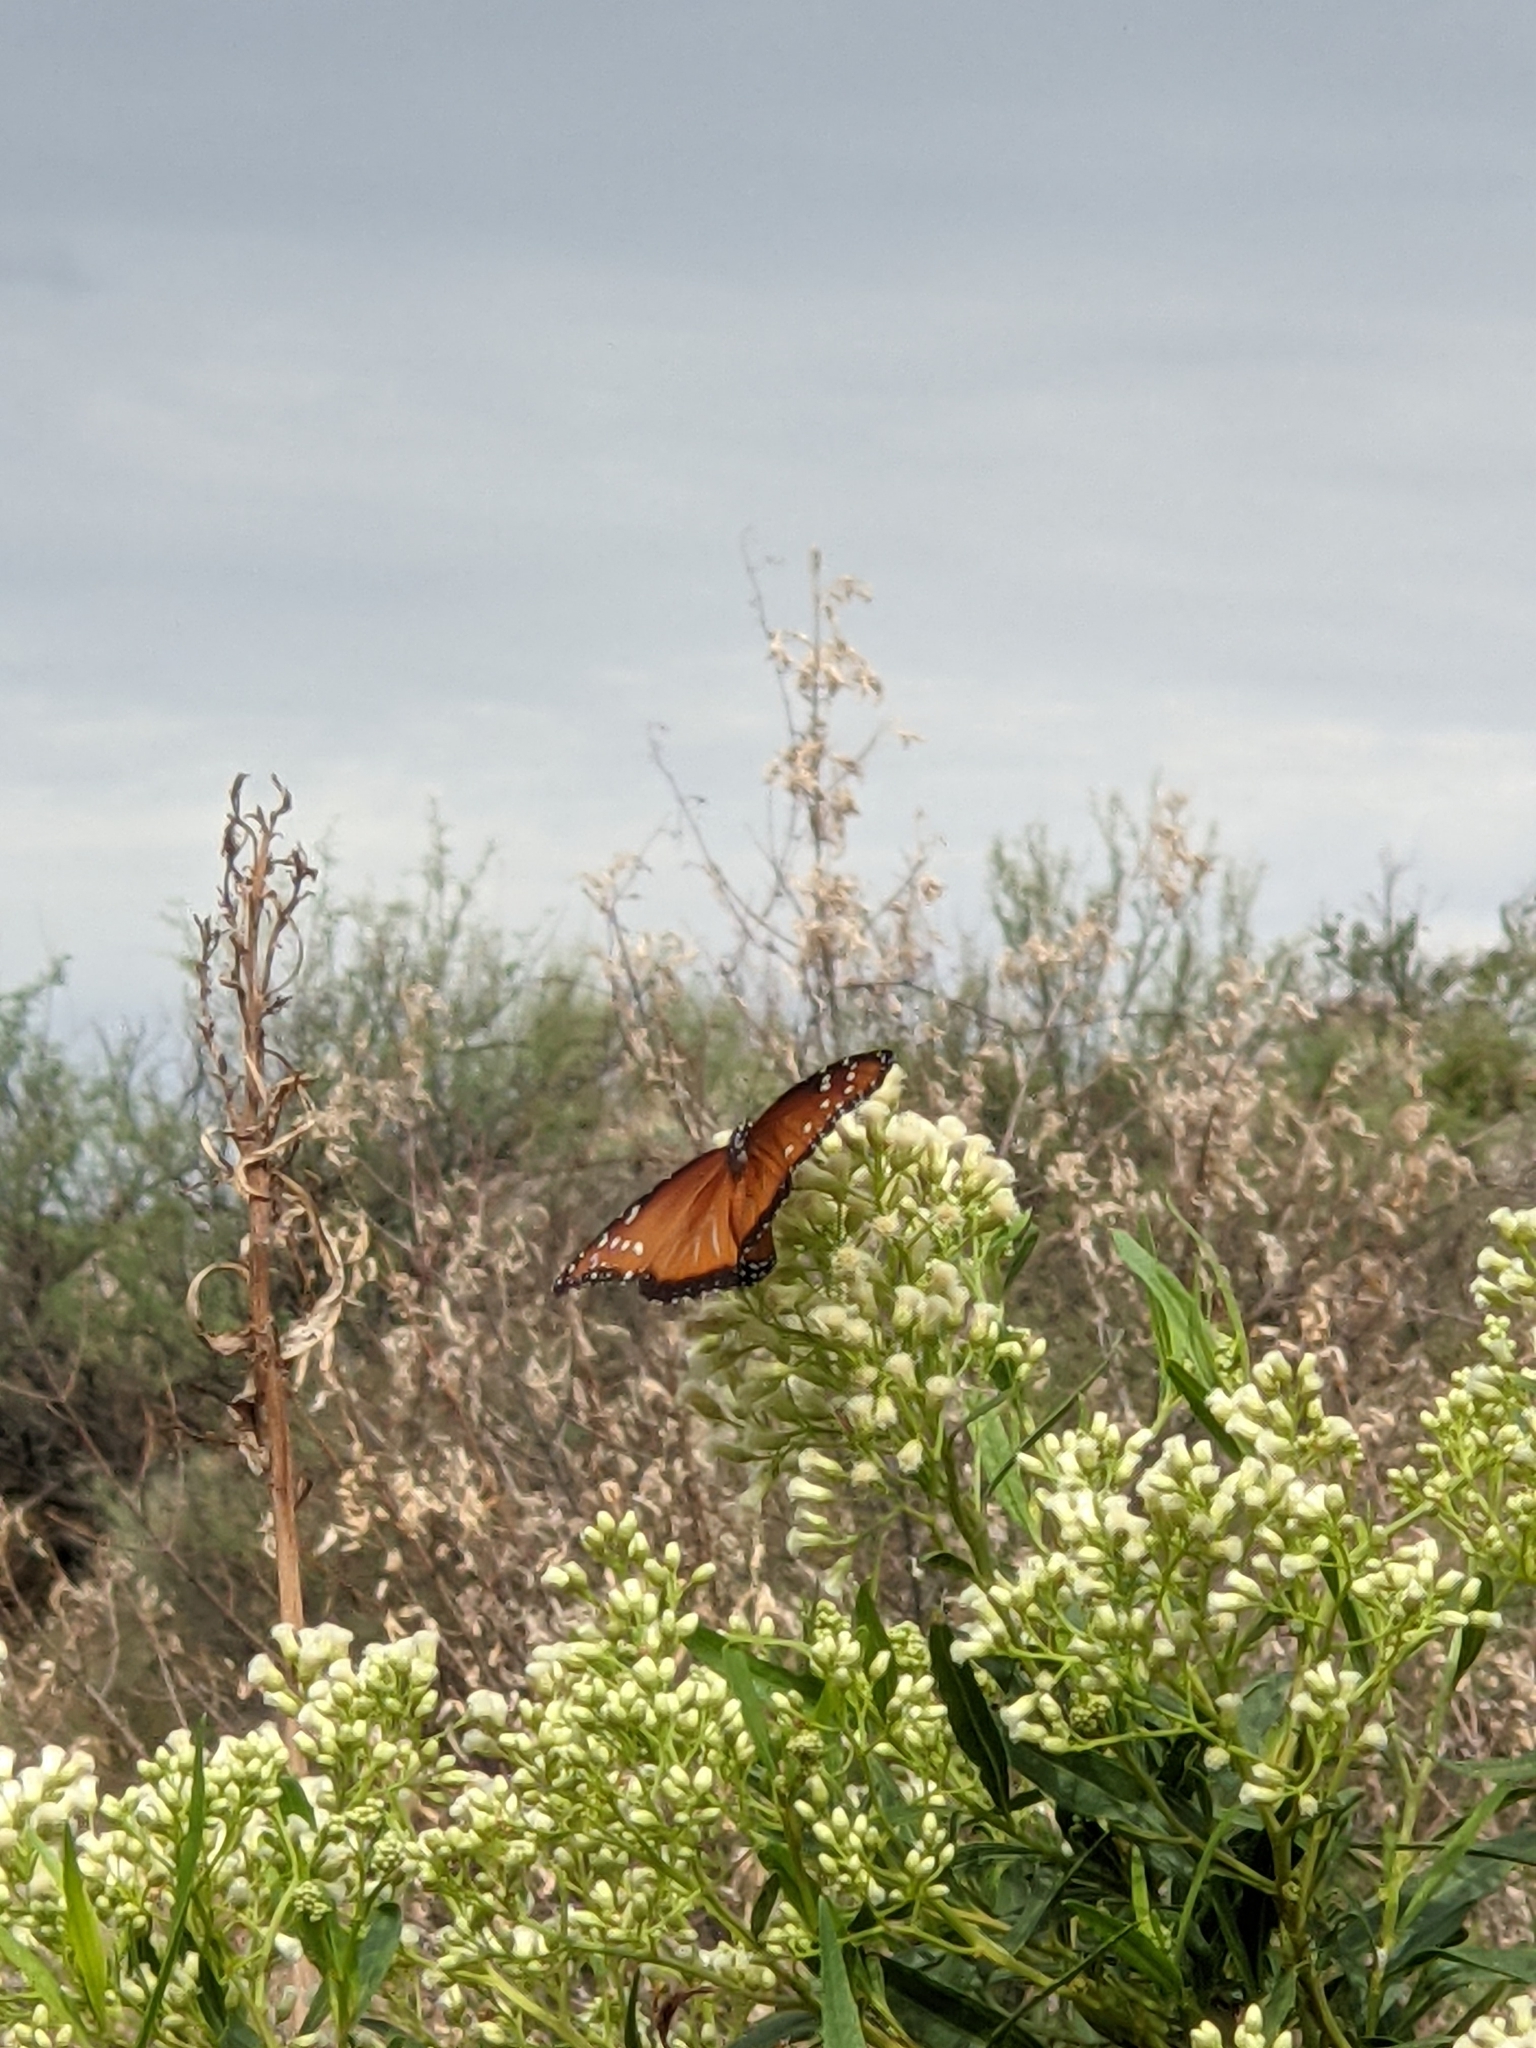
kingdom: Animalia
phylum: Arthropoda
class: Insecta
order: Lepidoptera
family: Nymphalidae
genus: Danaus
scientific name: Danaus gilippus
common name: Queen
